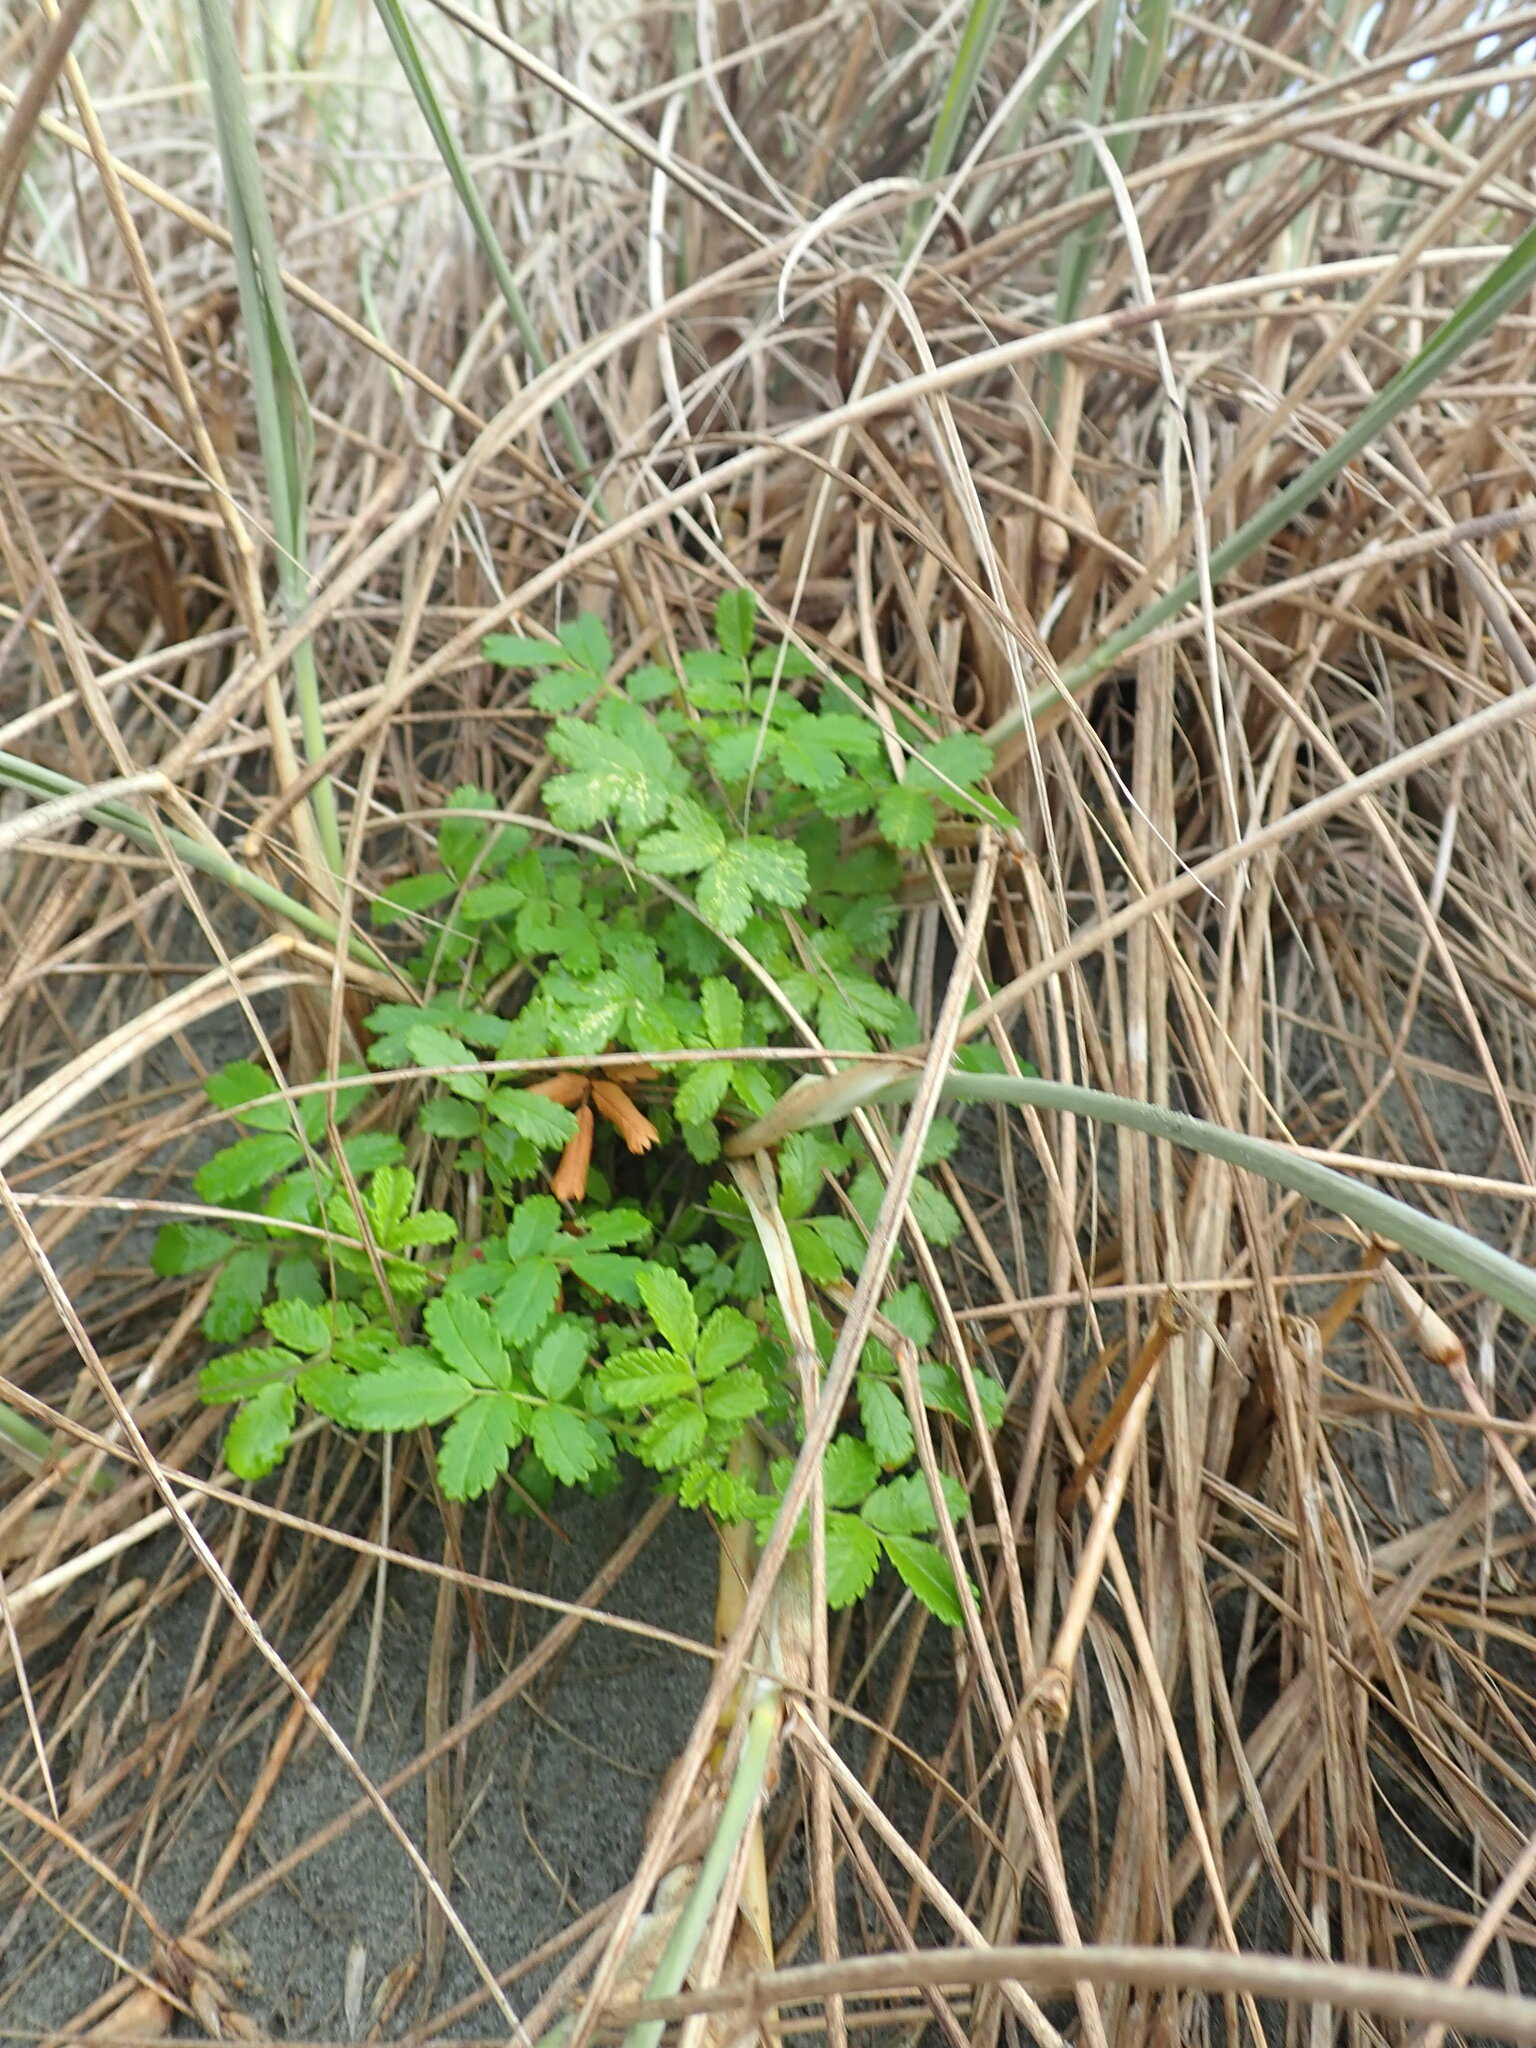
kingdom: Plantae
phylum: Tracheophyta
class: Magnoliopsida
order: Rosales
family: Rosaceae
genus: Acaena
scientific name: Acaena novae-zelandiae
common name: Pirri-pirri-bur
